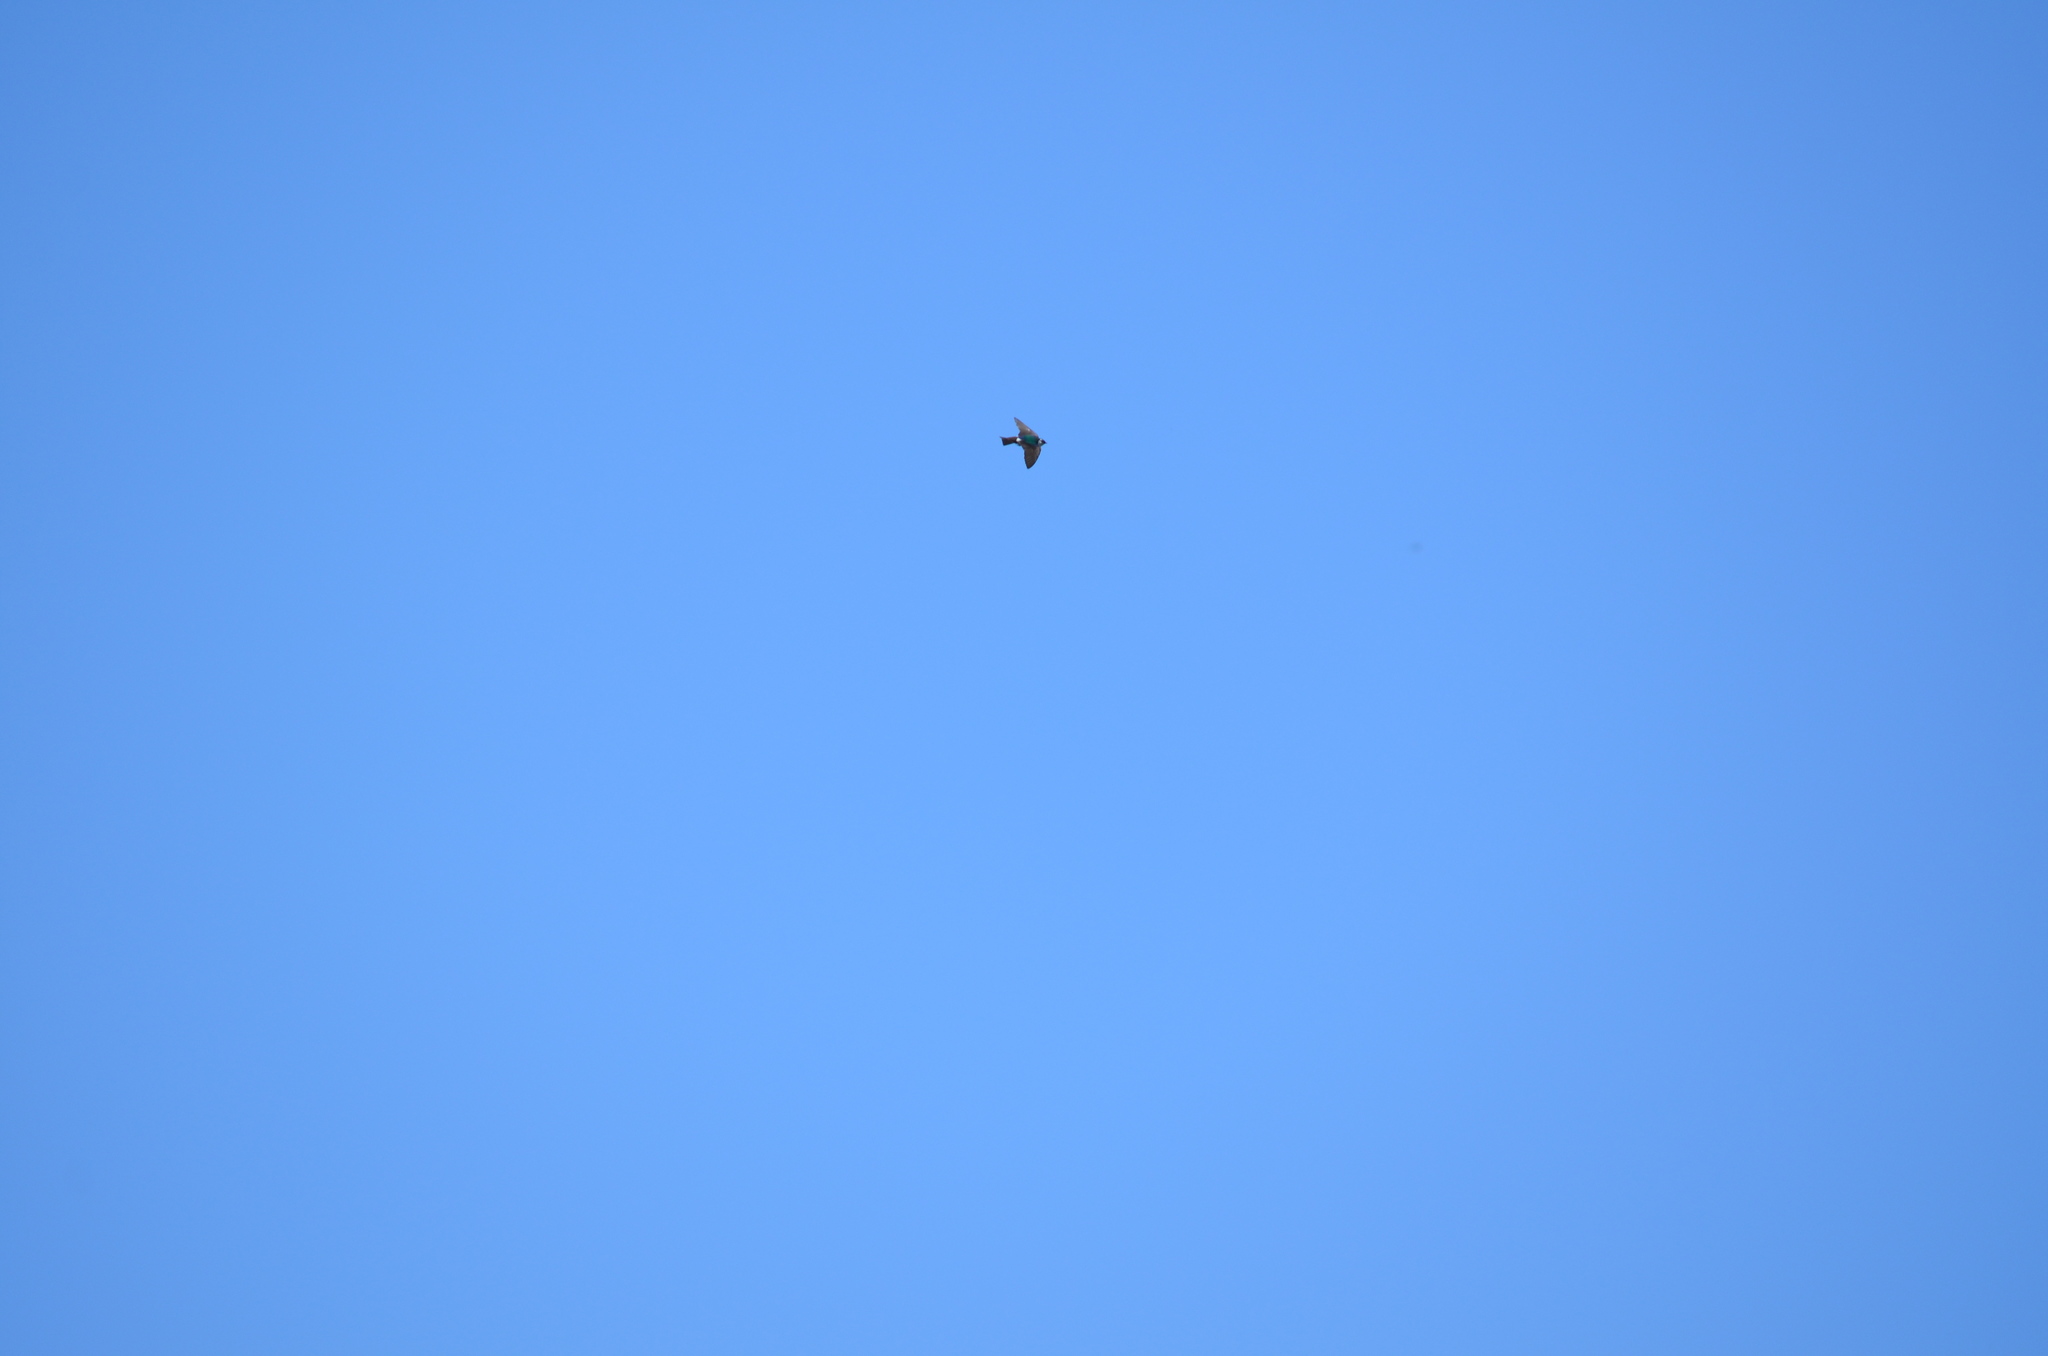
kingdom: Animalia
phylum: Chordata
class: Aves
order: Passeriformes
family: Hirundinidae
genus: Tachycineta
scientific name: Tachycineta thalassina
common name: Violet-green swallow
